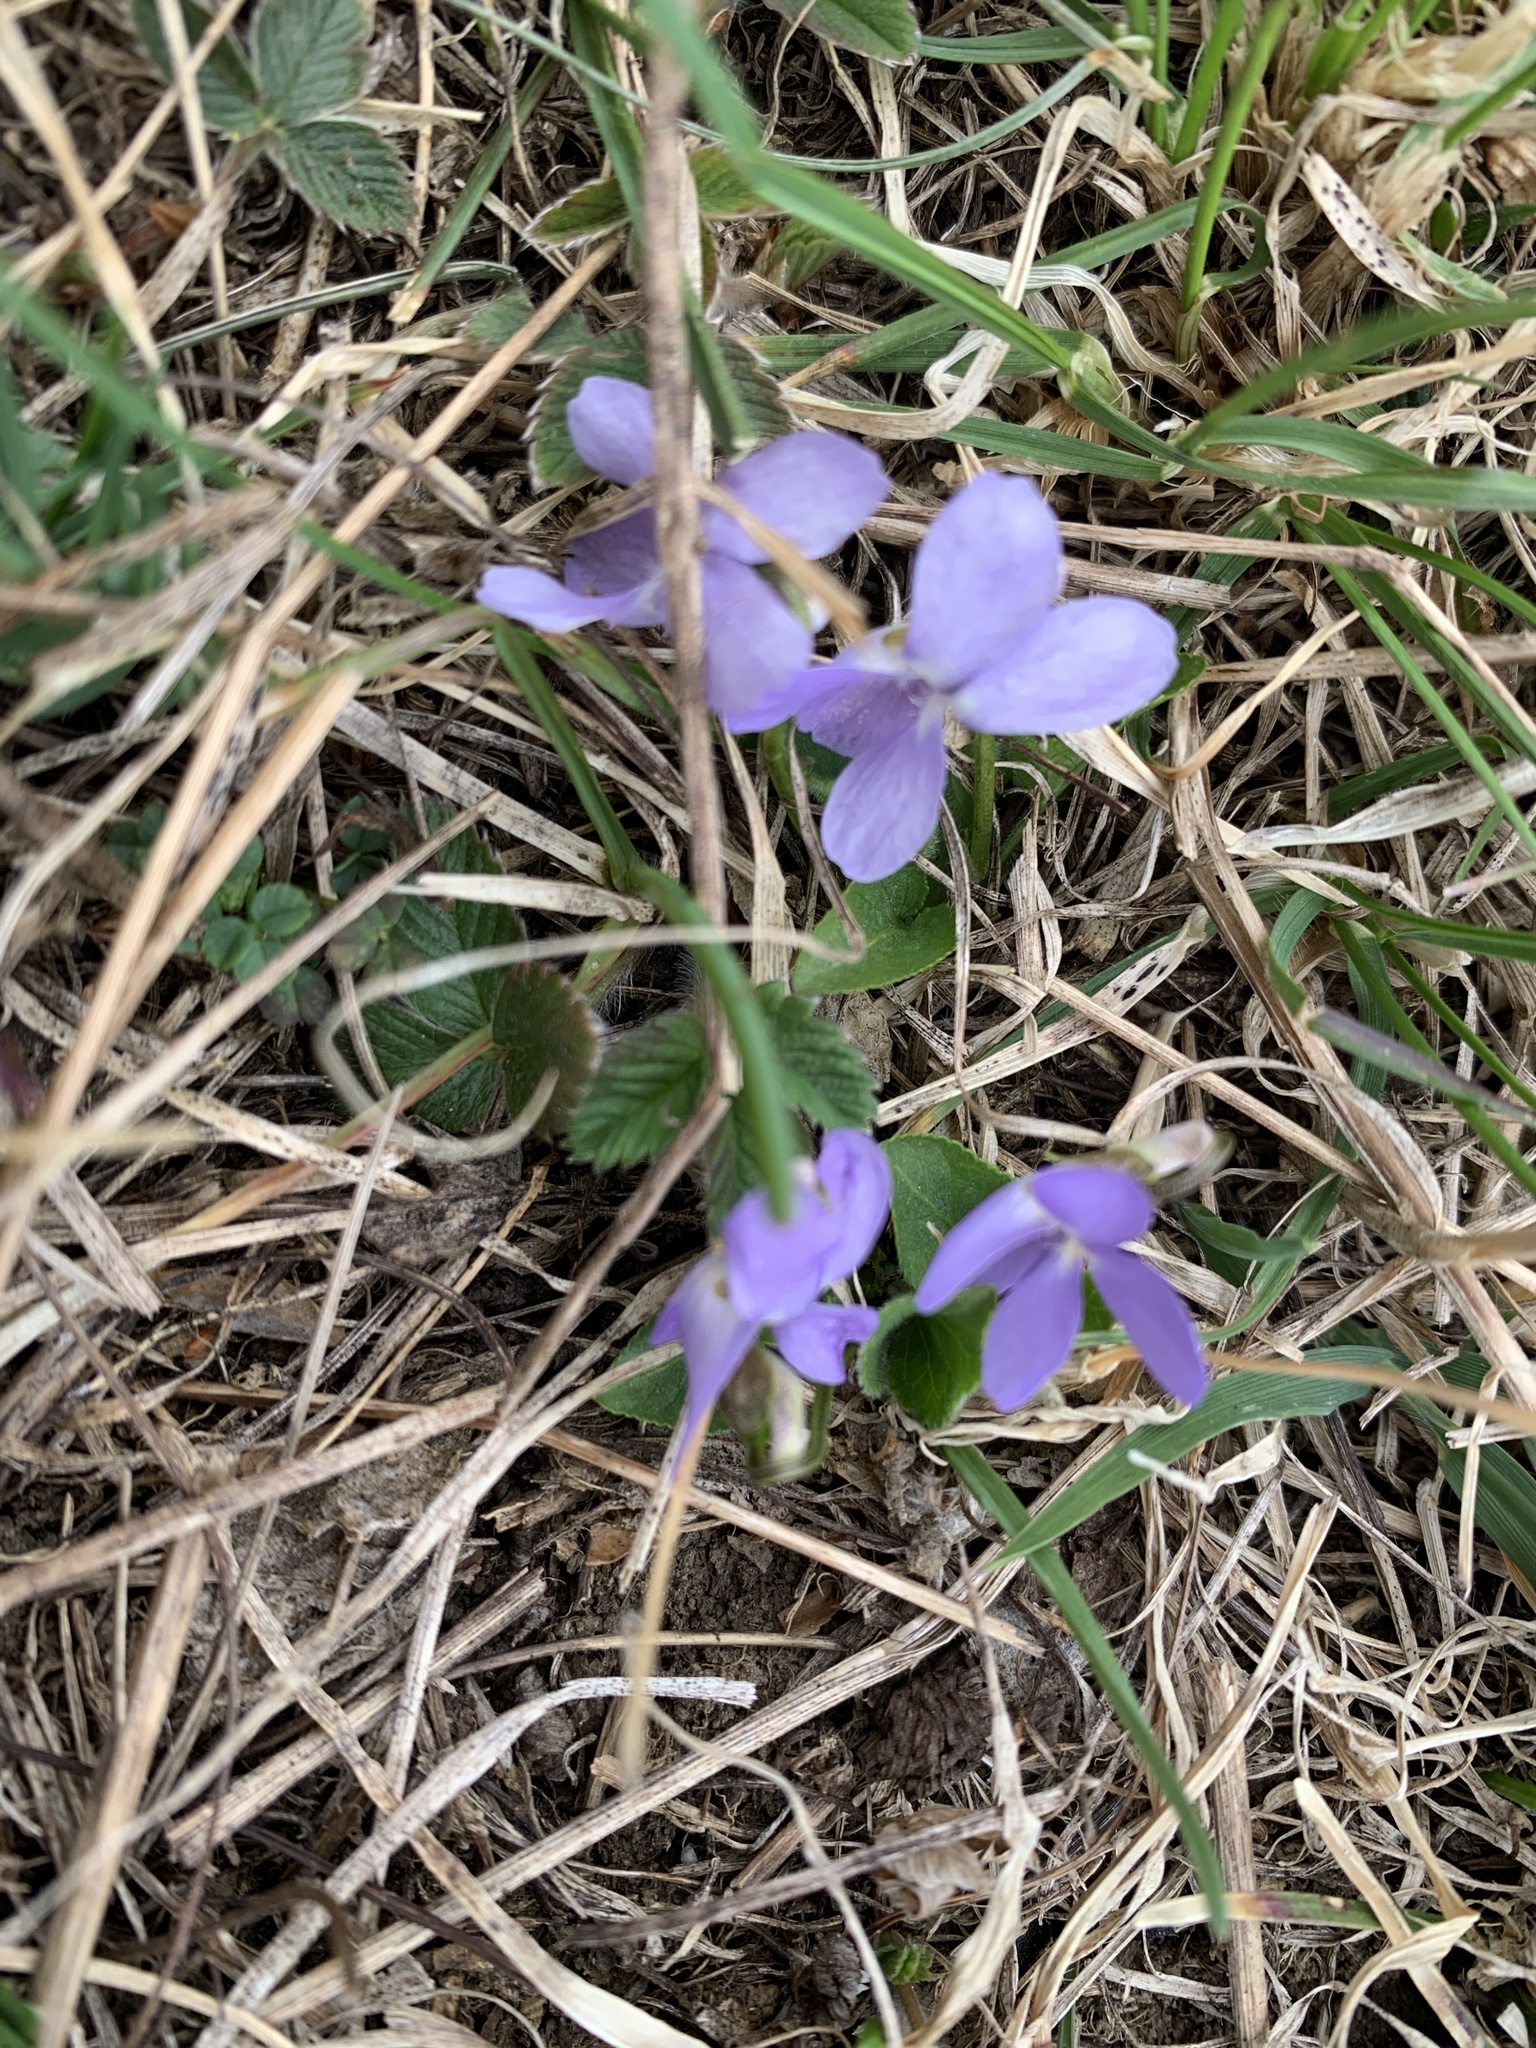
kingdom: Plantae
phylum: Tracheophyta
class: Magnoliopsida
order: Malpighiales
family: Violaceae
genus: Viola
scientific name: Viola hirta
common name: Hairy violet
